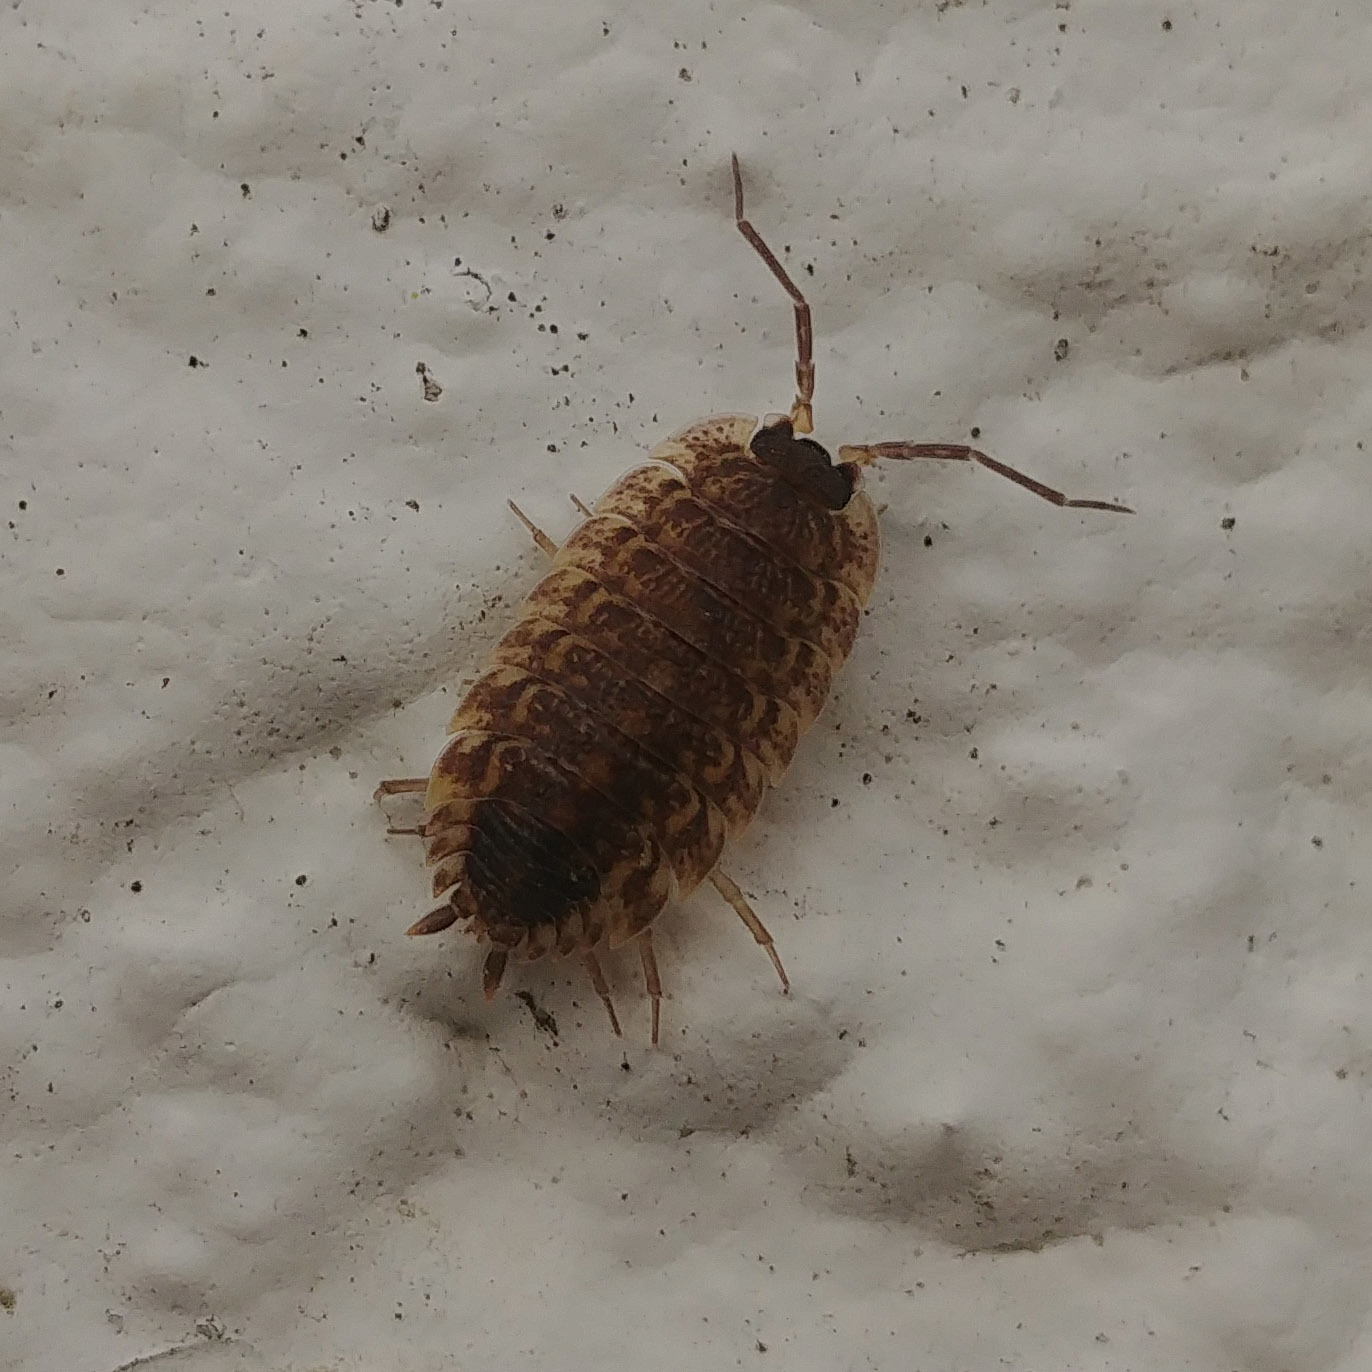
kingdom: Animalia
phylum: Arthropoda
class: Malacostraca
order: Isopoda
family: Porcellionidae
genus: Porcellio
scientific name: Porcellio spinicornis
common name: Painted woodlouse
